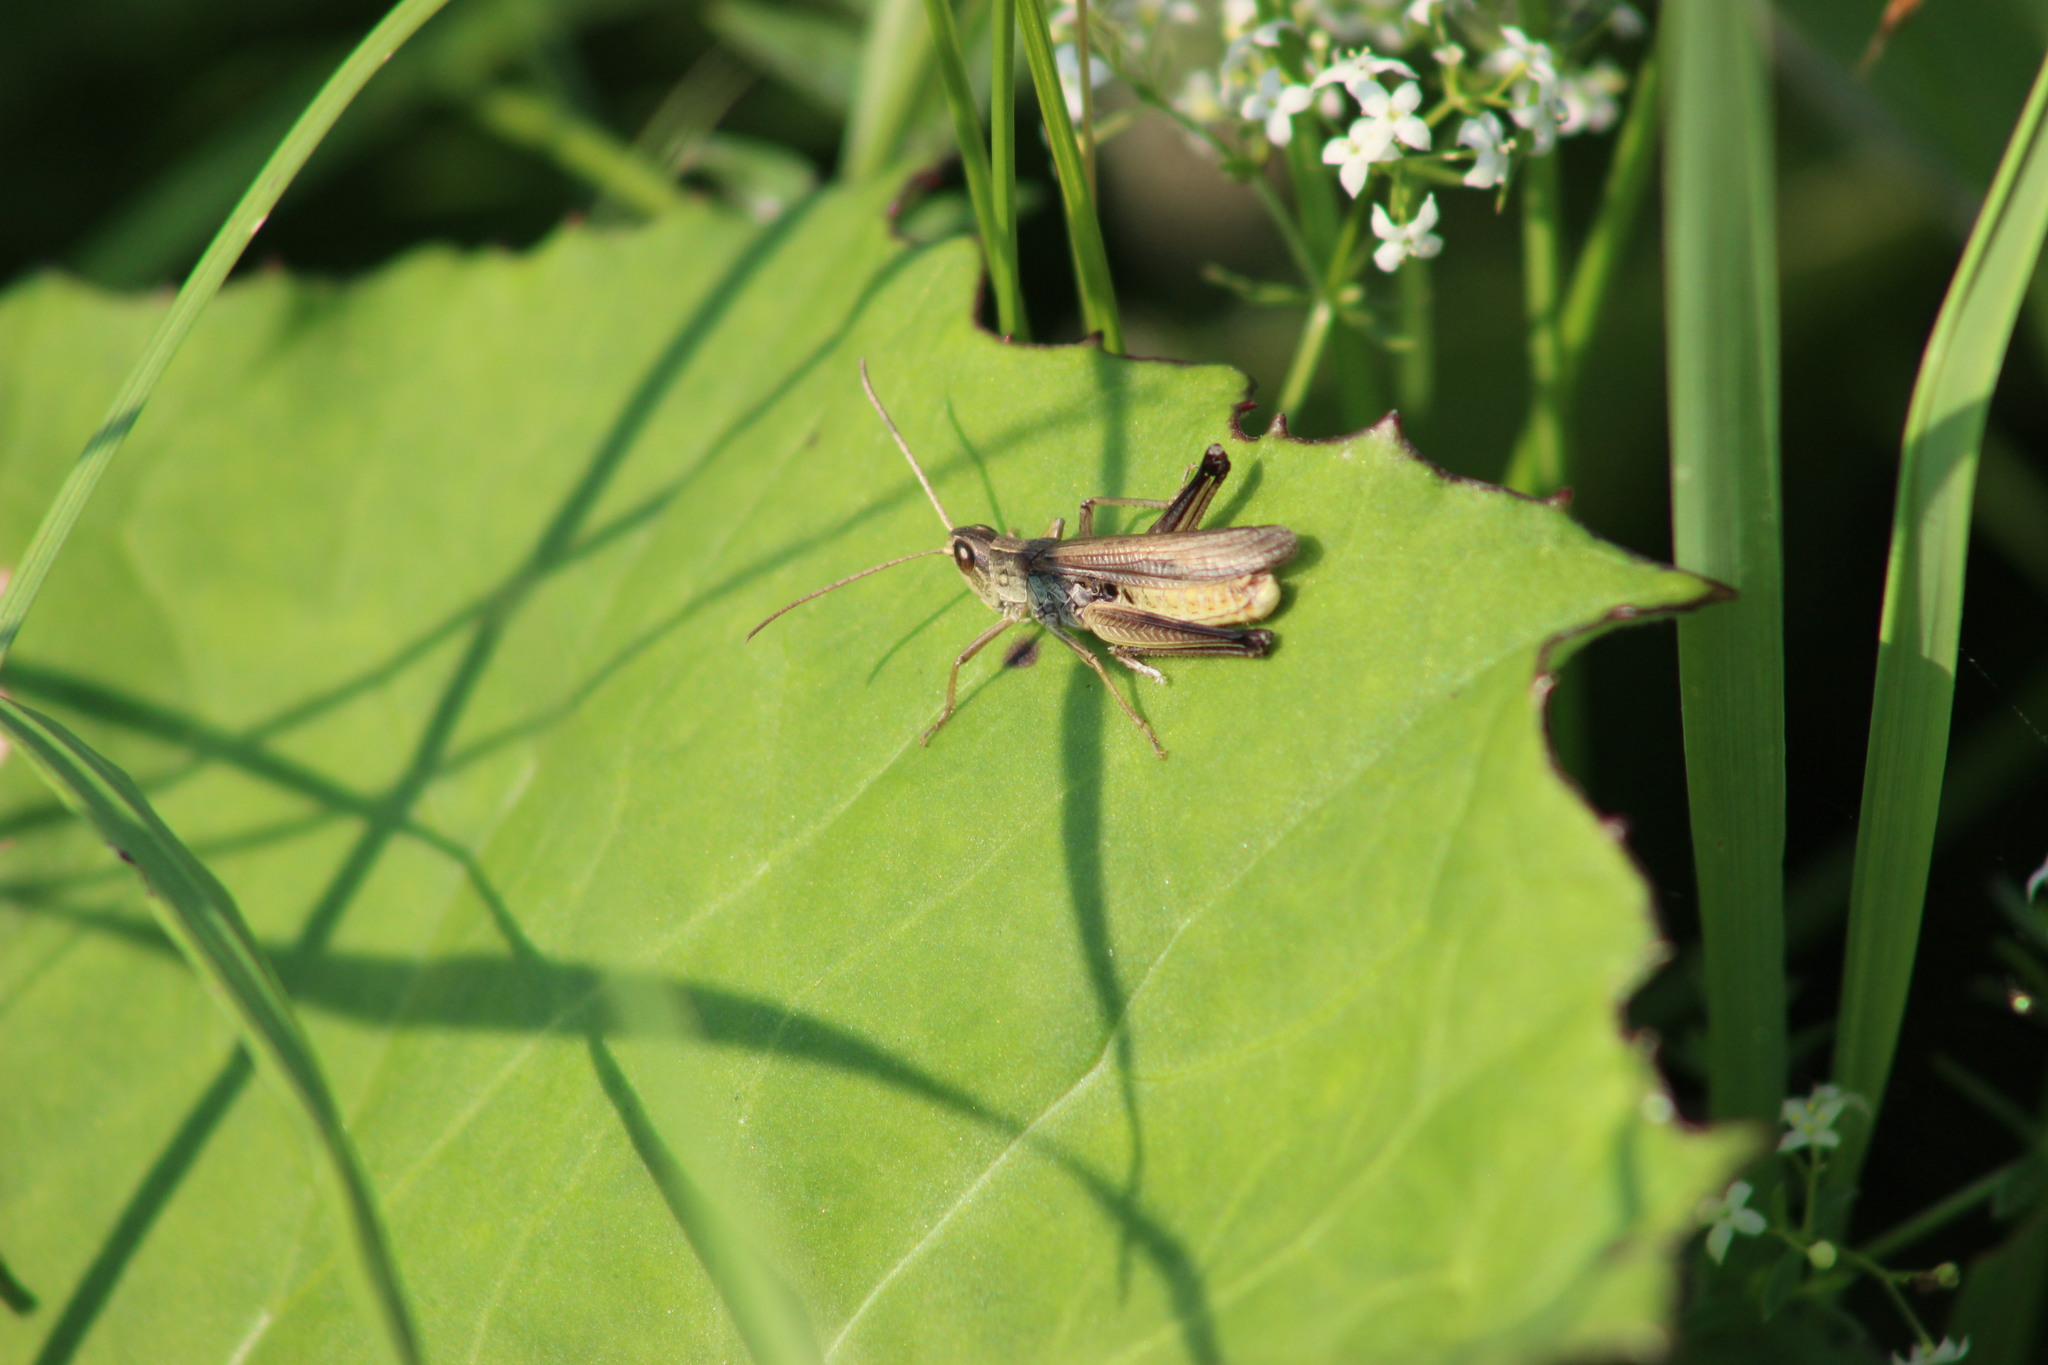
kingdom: Animalia
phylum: Arthropoda
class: Insecta
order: Orthoptera
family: Acrididae
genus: Chorthippus
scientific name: Chorthippus
